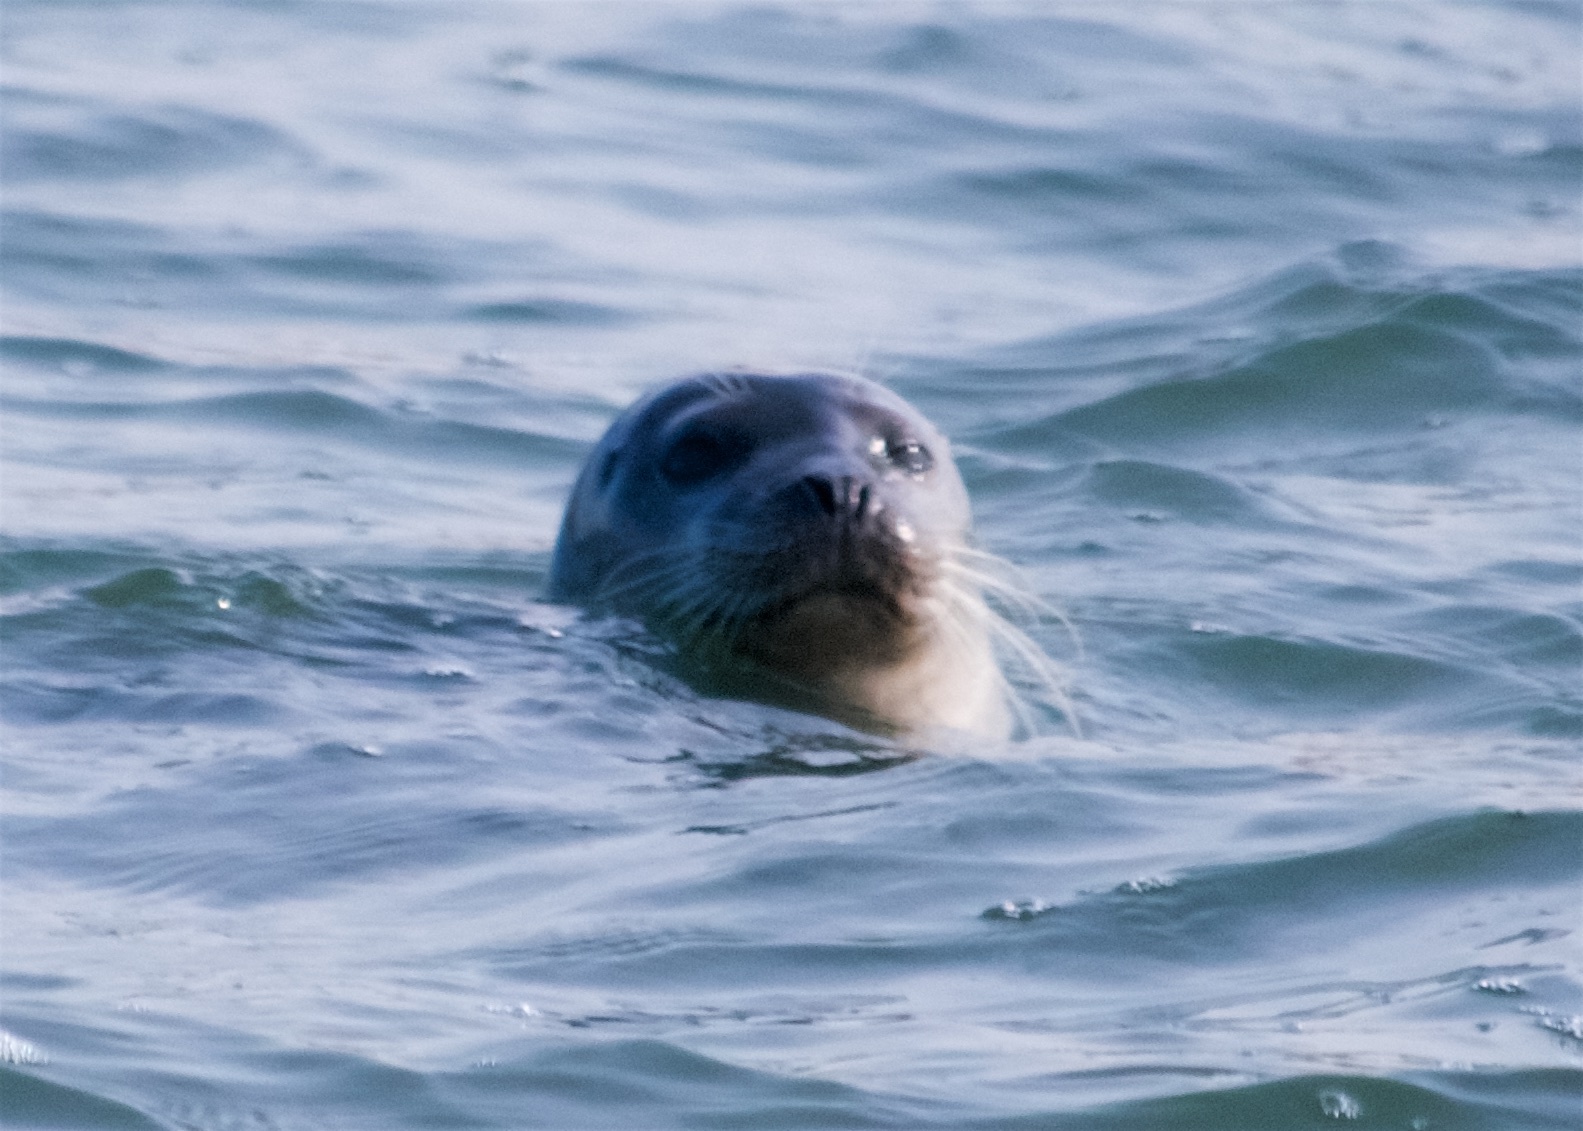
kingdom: Animalia
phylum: Chordata
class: Mammalia
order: Carnivora
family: Phocidae
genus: Phoca
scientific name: Phoca vitulina
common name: Harbor seal
